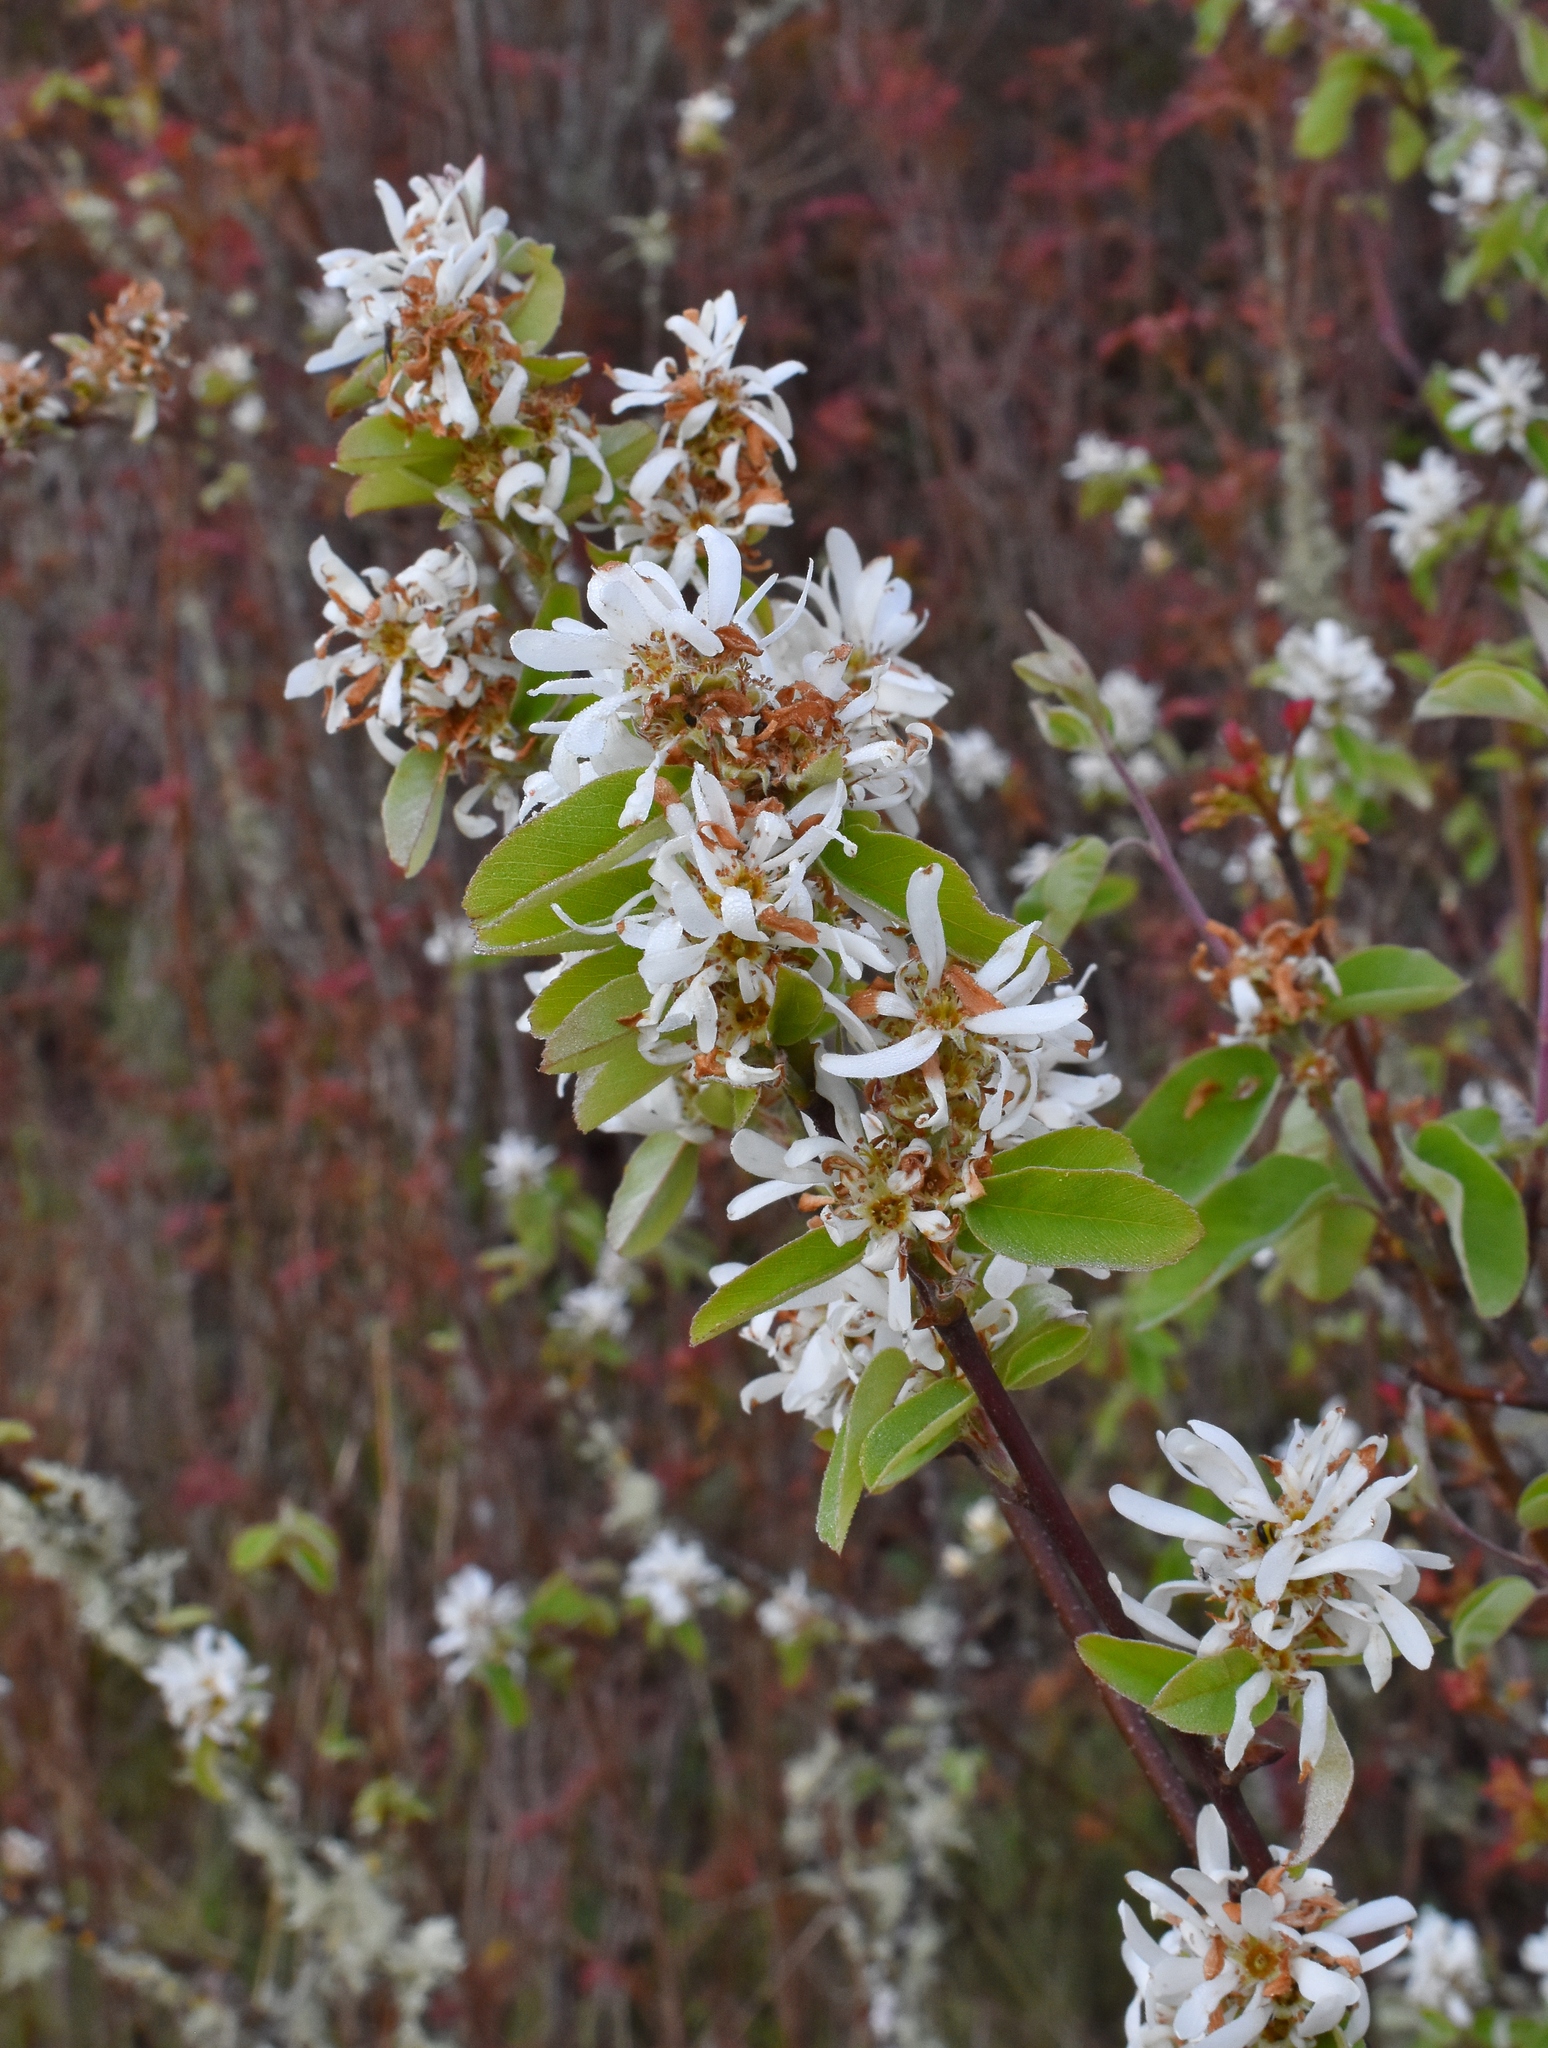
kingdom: Plantae
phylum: Tracheophyta
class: Magnoliopsida
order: Rosales
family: Rosaceae
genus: Amelanchier
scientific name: Amelanchier alnifolia
